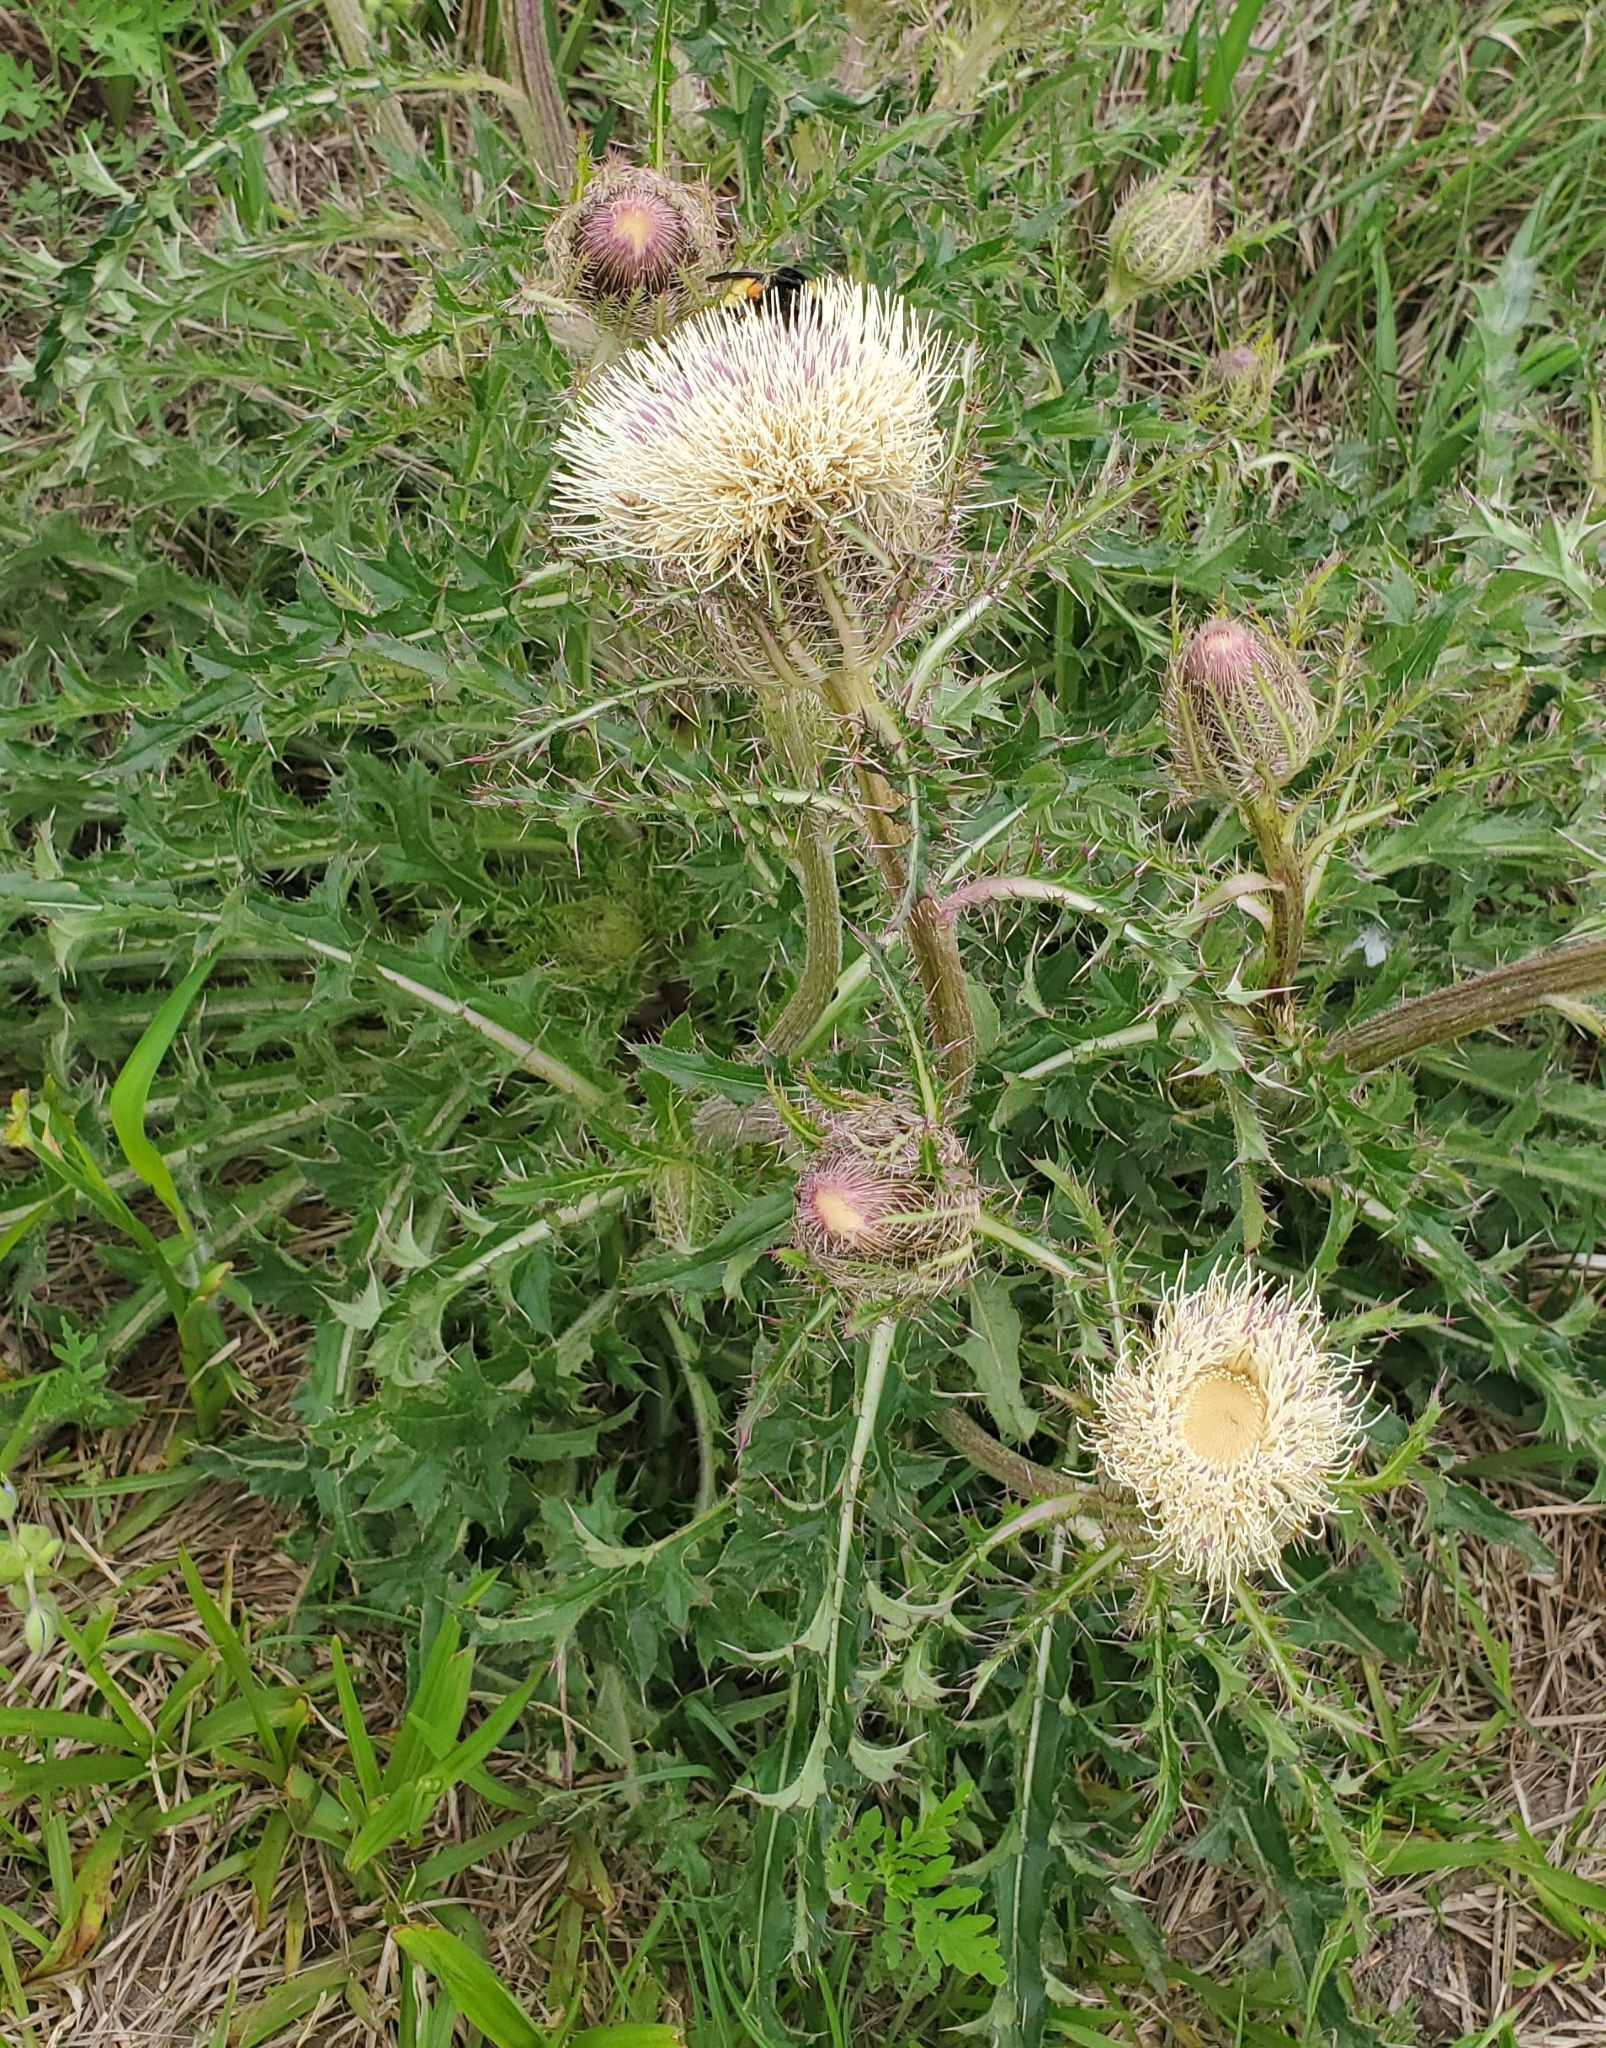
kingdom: Plantae
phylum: Tracheophyta
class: Magnoliopsida
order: Asterales
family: Asteraceae
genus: Cirsium
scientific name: Cirsium horridulum
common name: Bristly thistle
